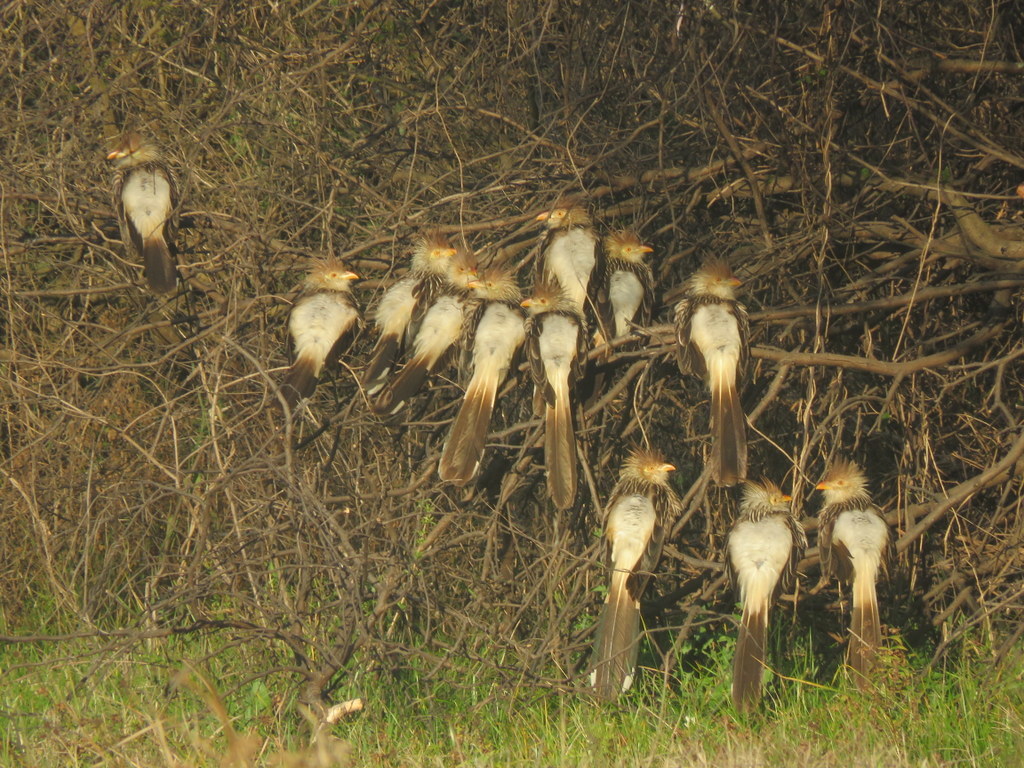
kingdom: Animalia
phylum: Chordata
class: Aves
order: Cuculiformes
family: Cuculidae
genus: Guira
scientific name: Guira guira
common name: Guira cuckoo
